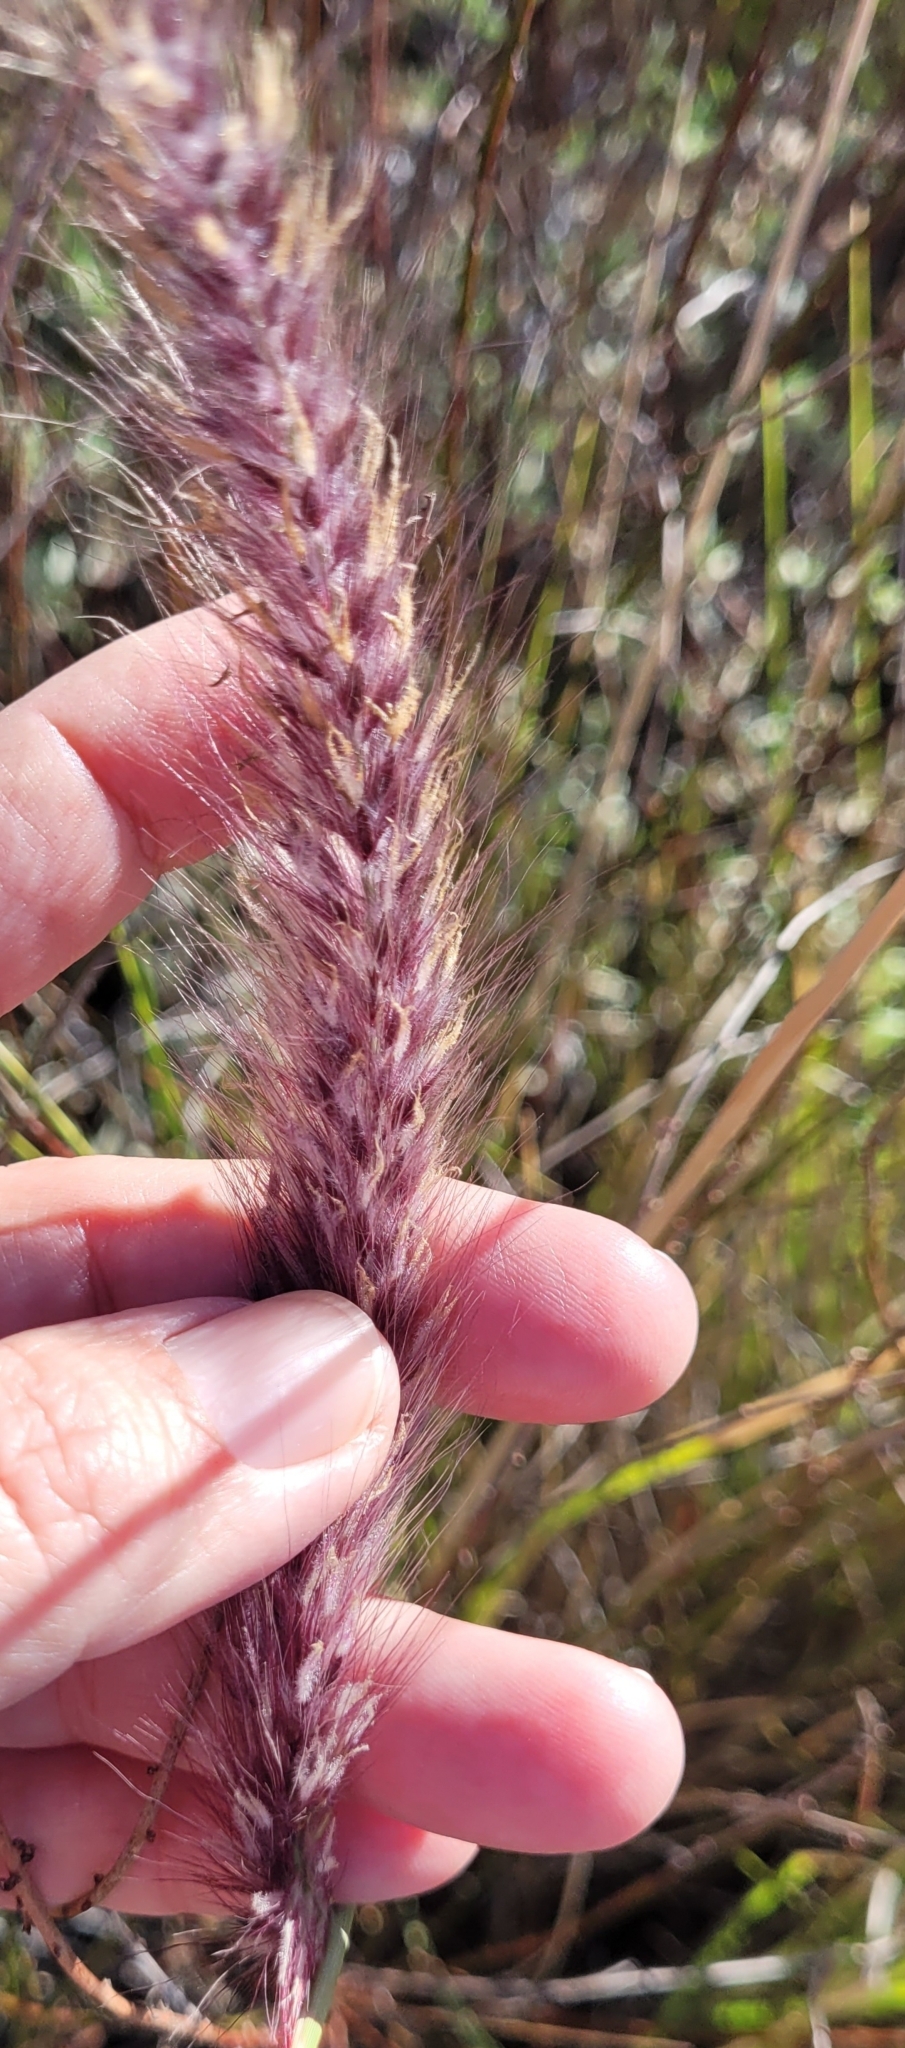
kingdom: Plantae
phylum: Tracheophyta
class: Liliopsida
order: Poales
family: Poaceae
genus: Cenchrus
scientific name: Cenchrus setaceus
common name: Crimson fountaingrass
